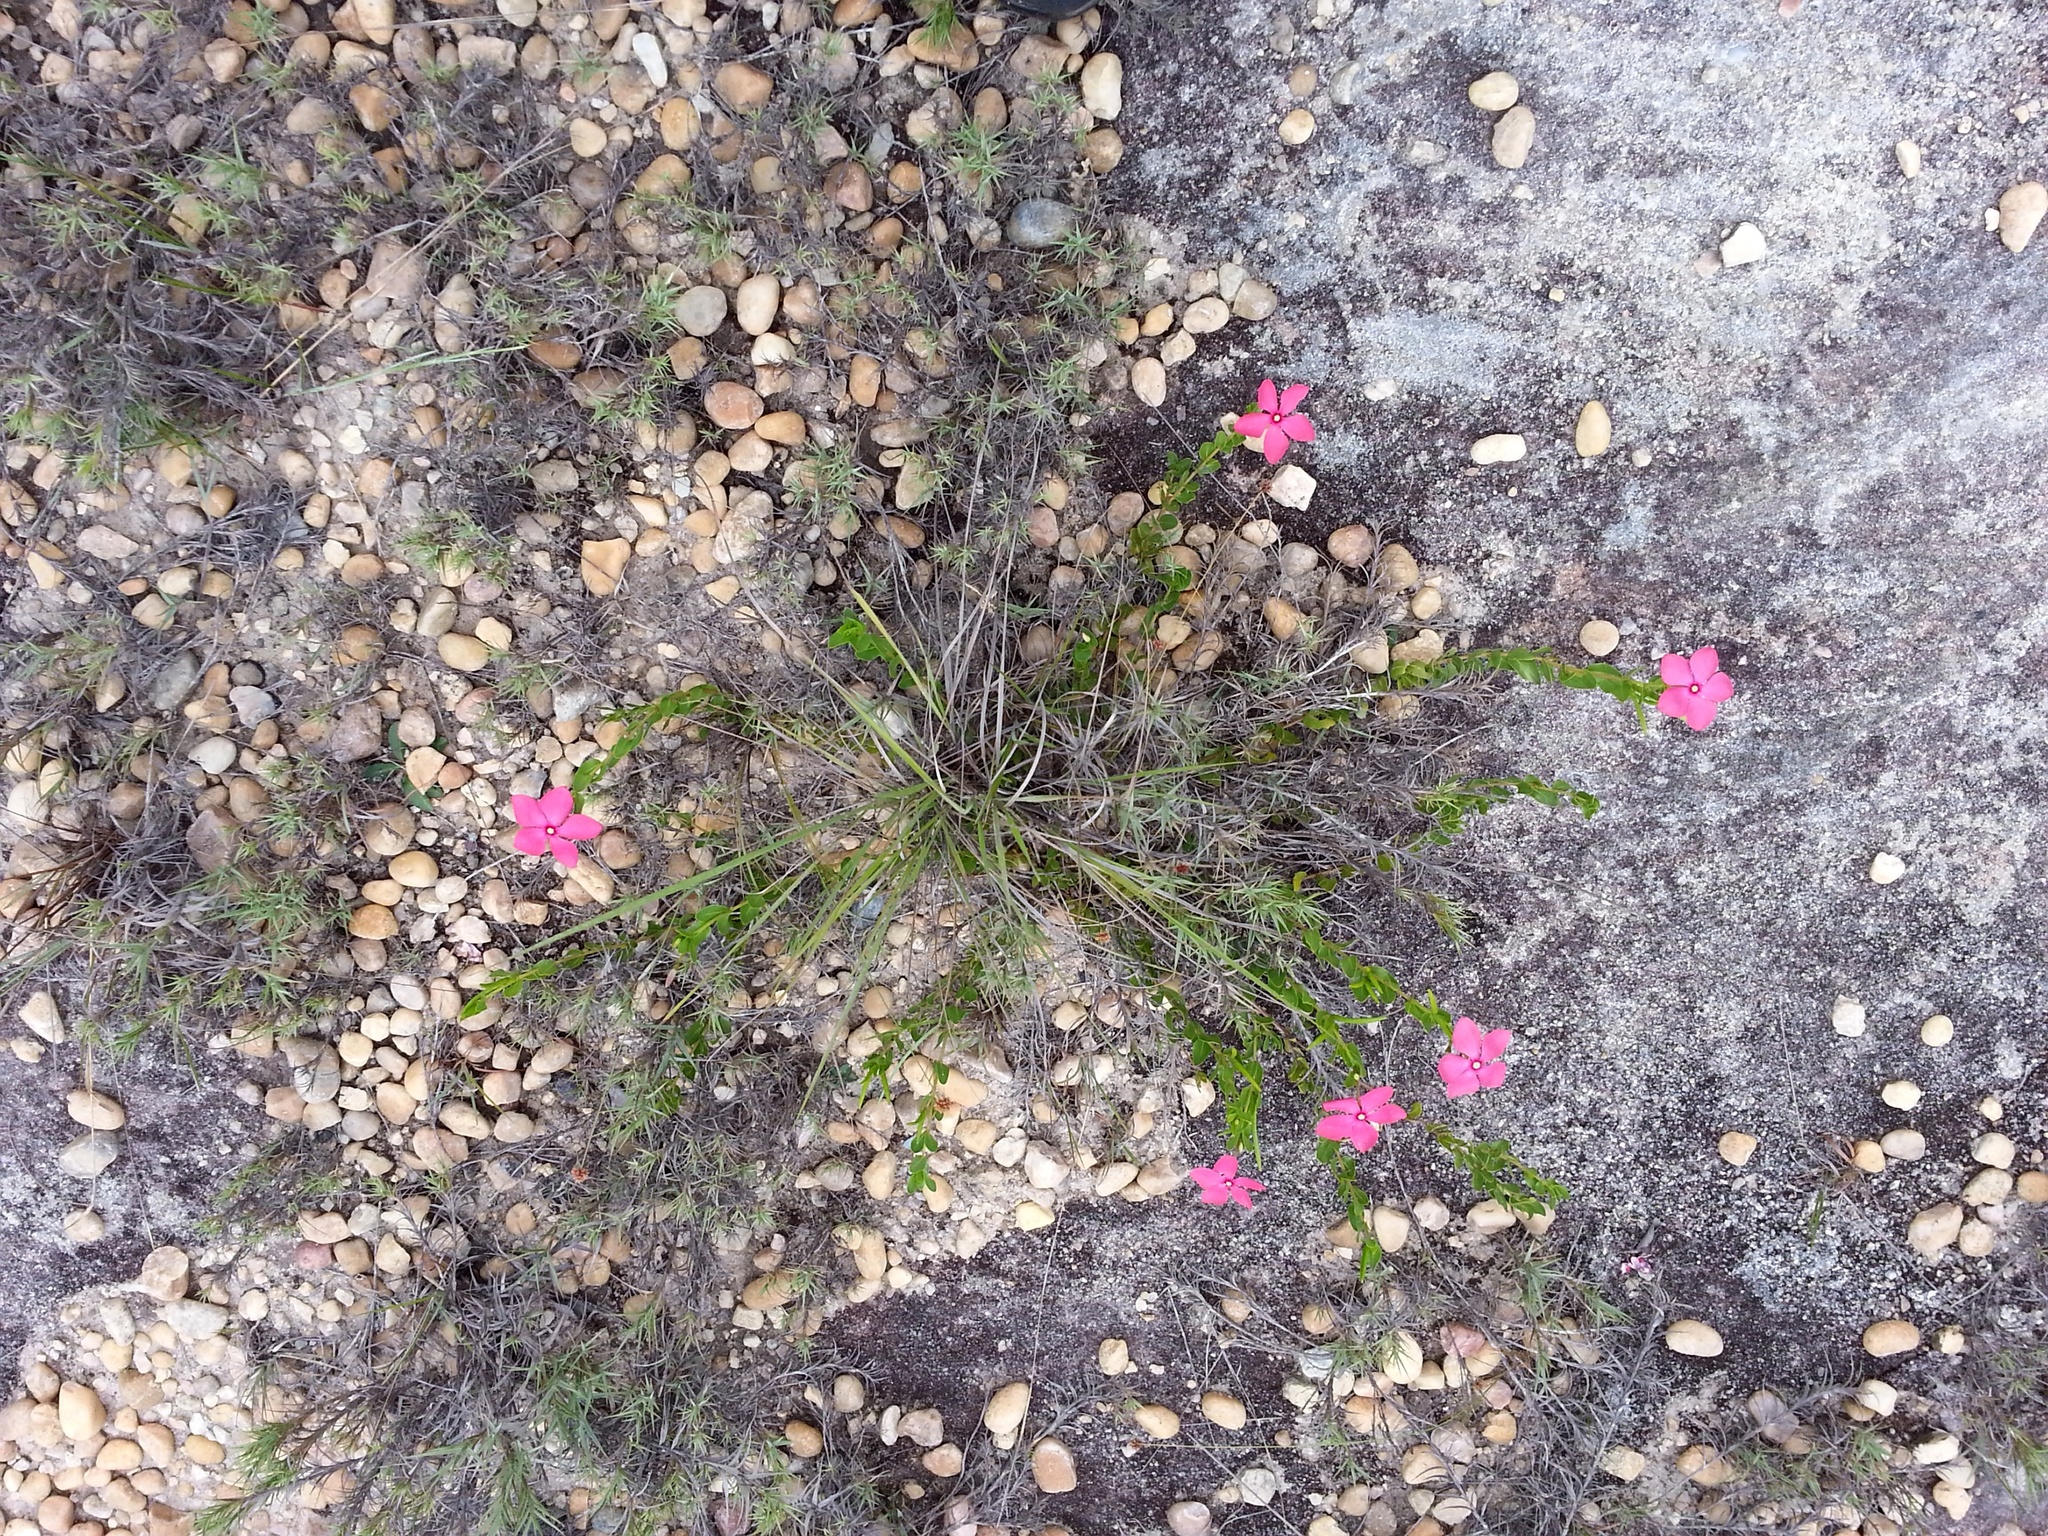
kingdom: Plantae
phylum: Tracheophyta
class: Magnoliopsida
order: Gentianales
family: Apocynaceae
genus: Catharanthus
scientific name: Catharanthus ovalis
